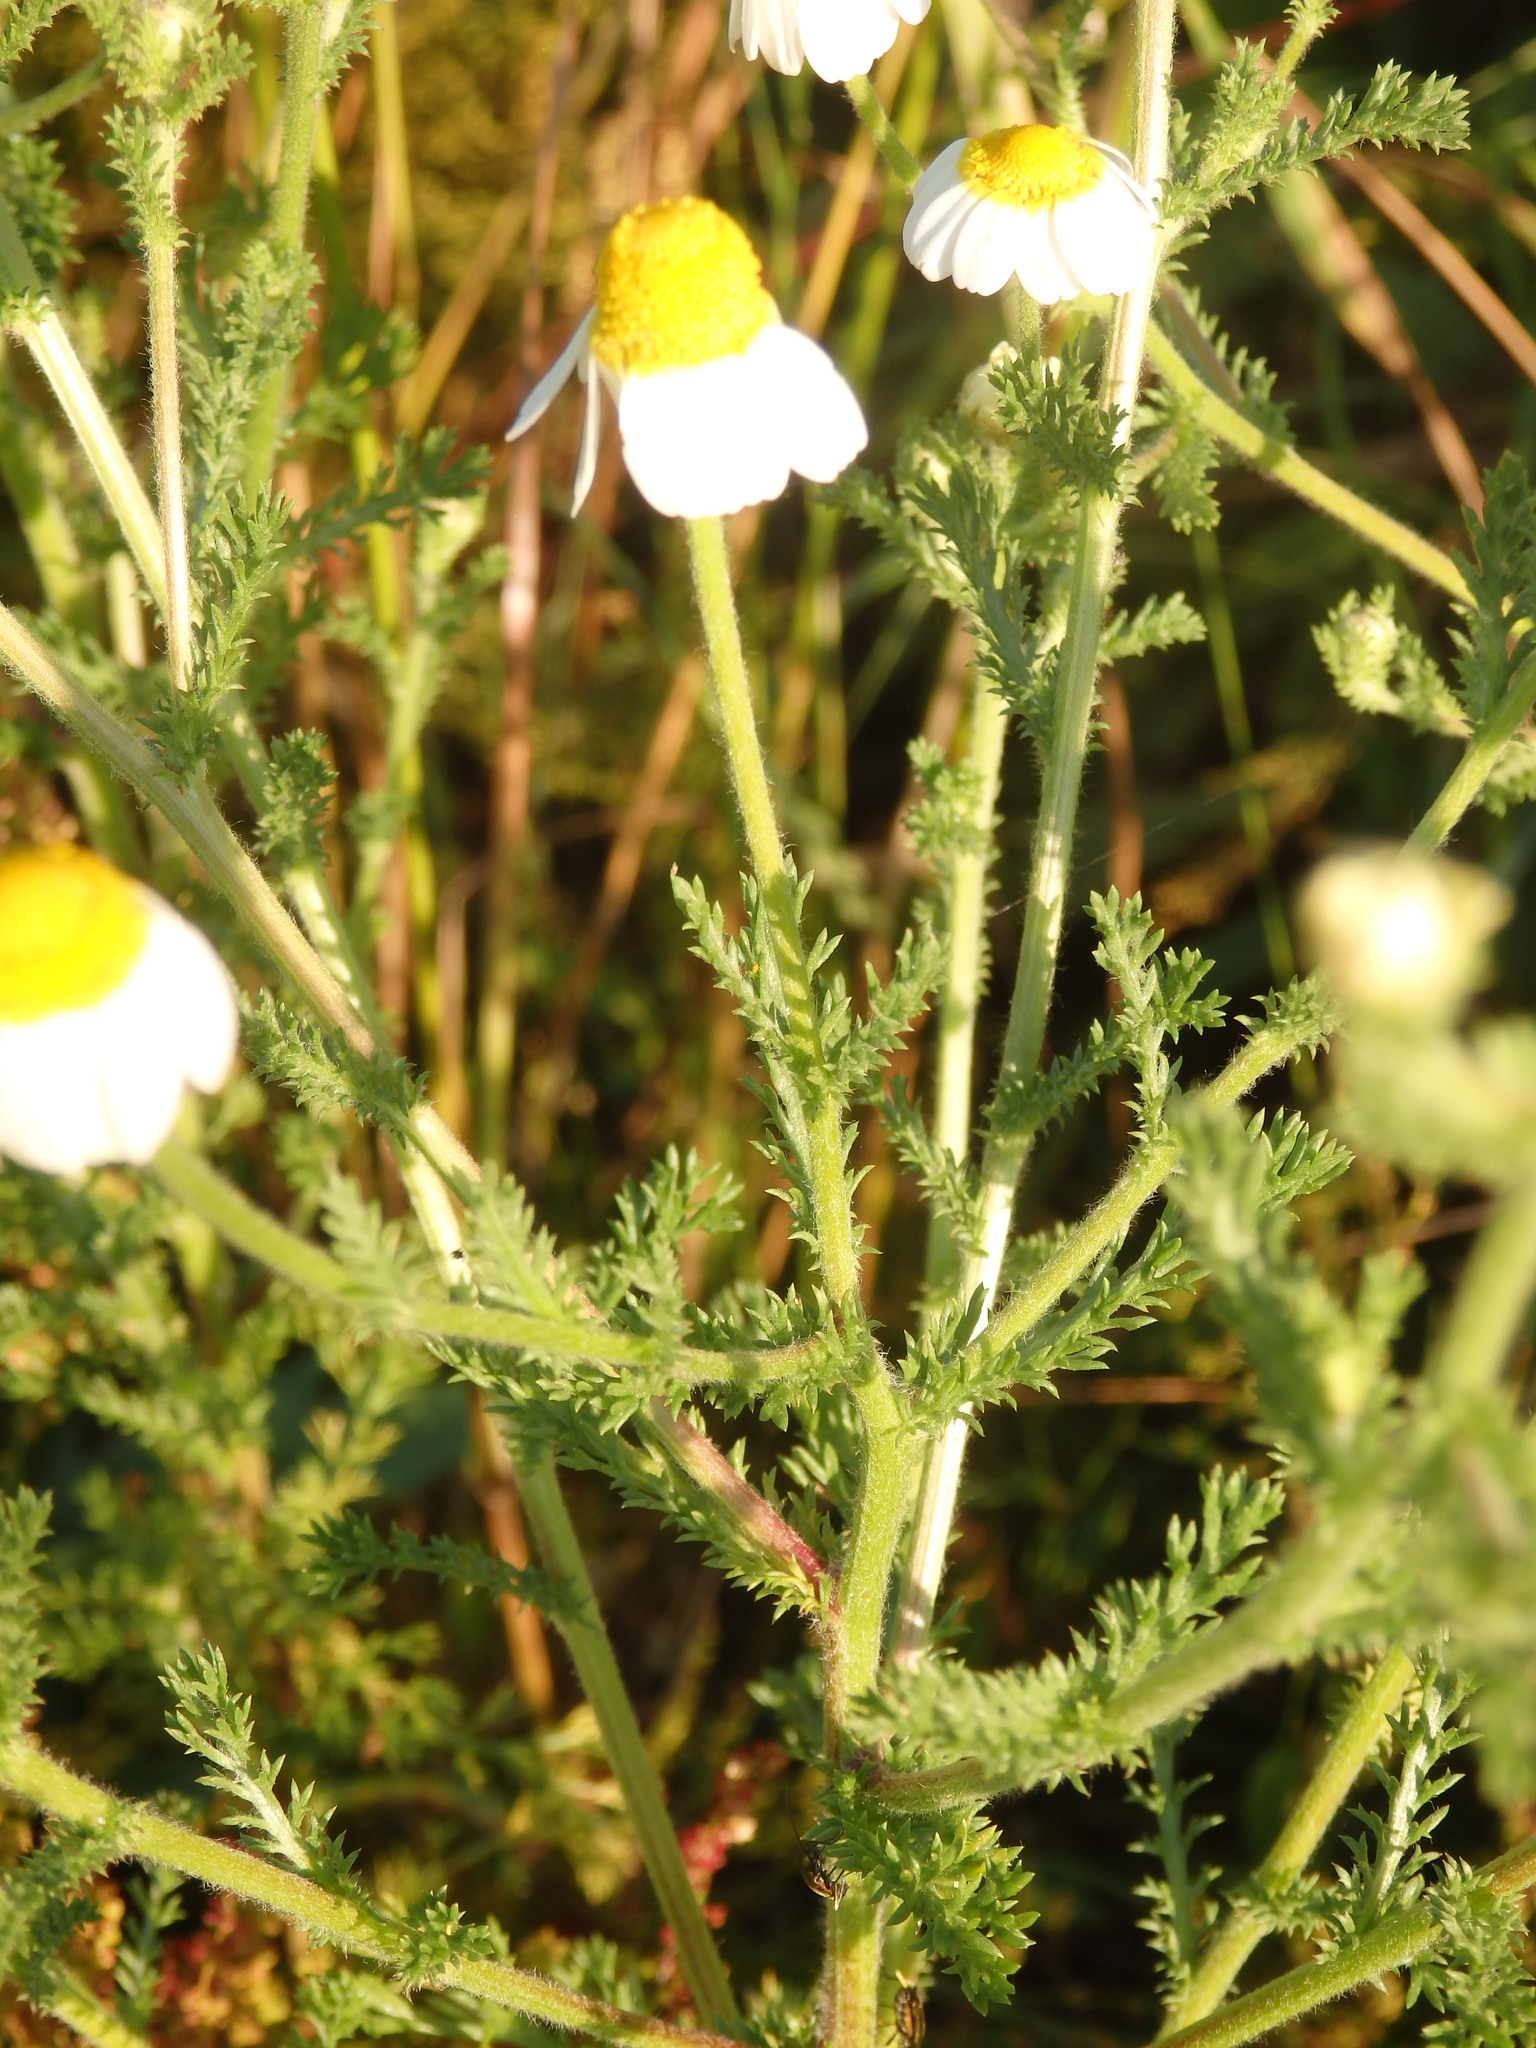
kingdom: Plantae
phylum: Tracheophyta
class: Magnoliopsida
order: Asterales
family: Asteraceae
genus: Cladanthus
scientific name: Cladanthus mixtus
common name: Weedy dogfennel
